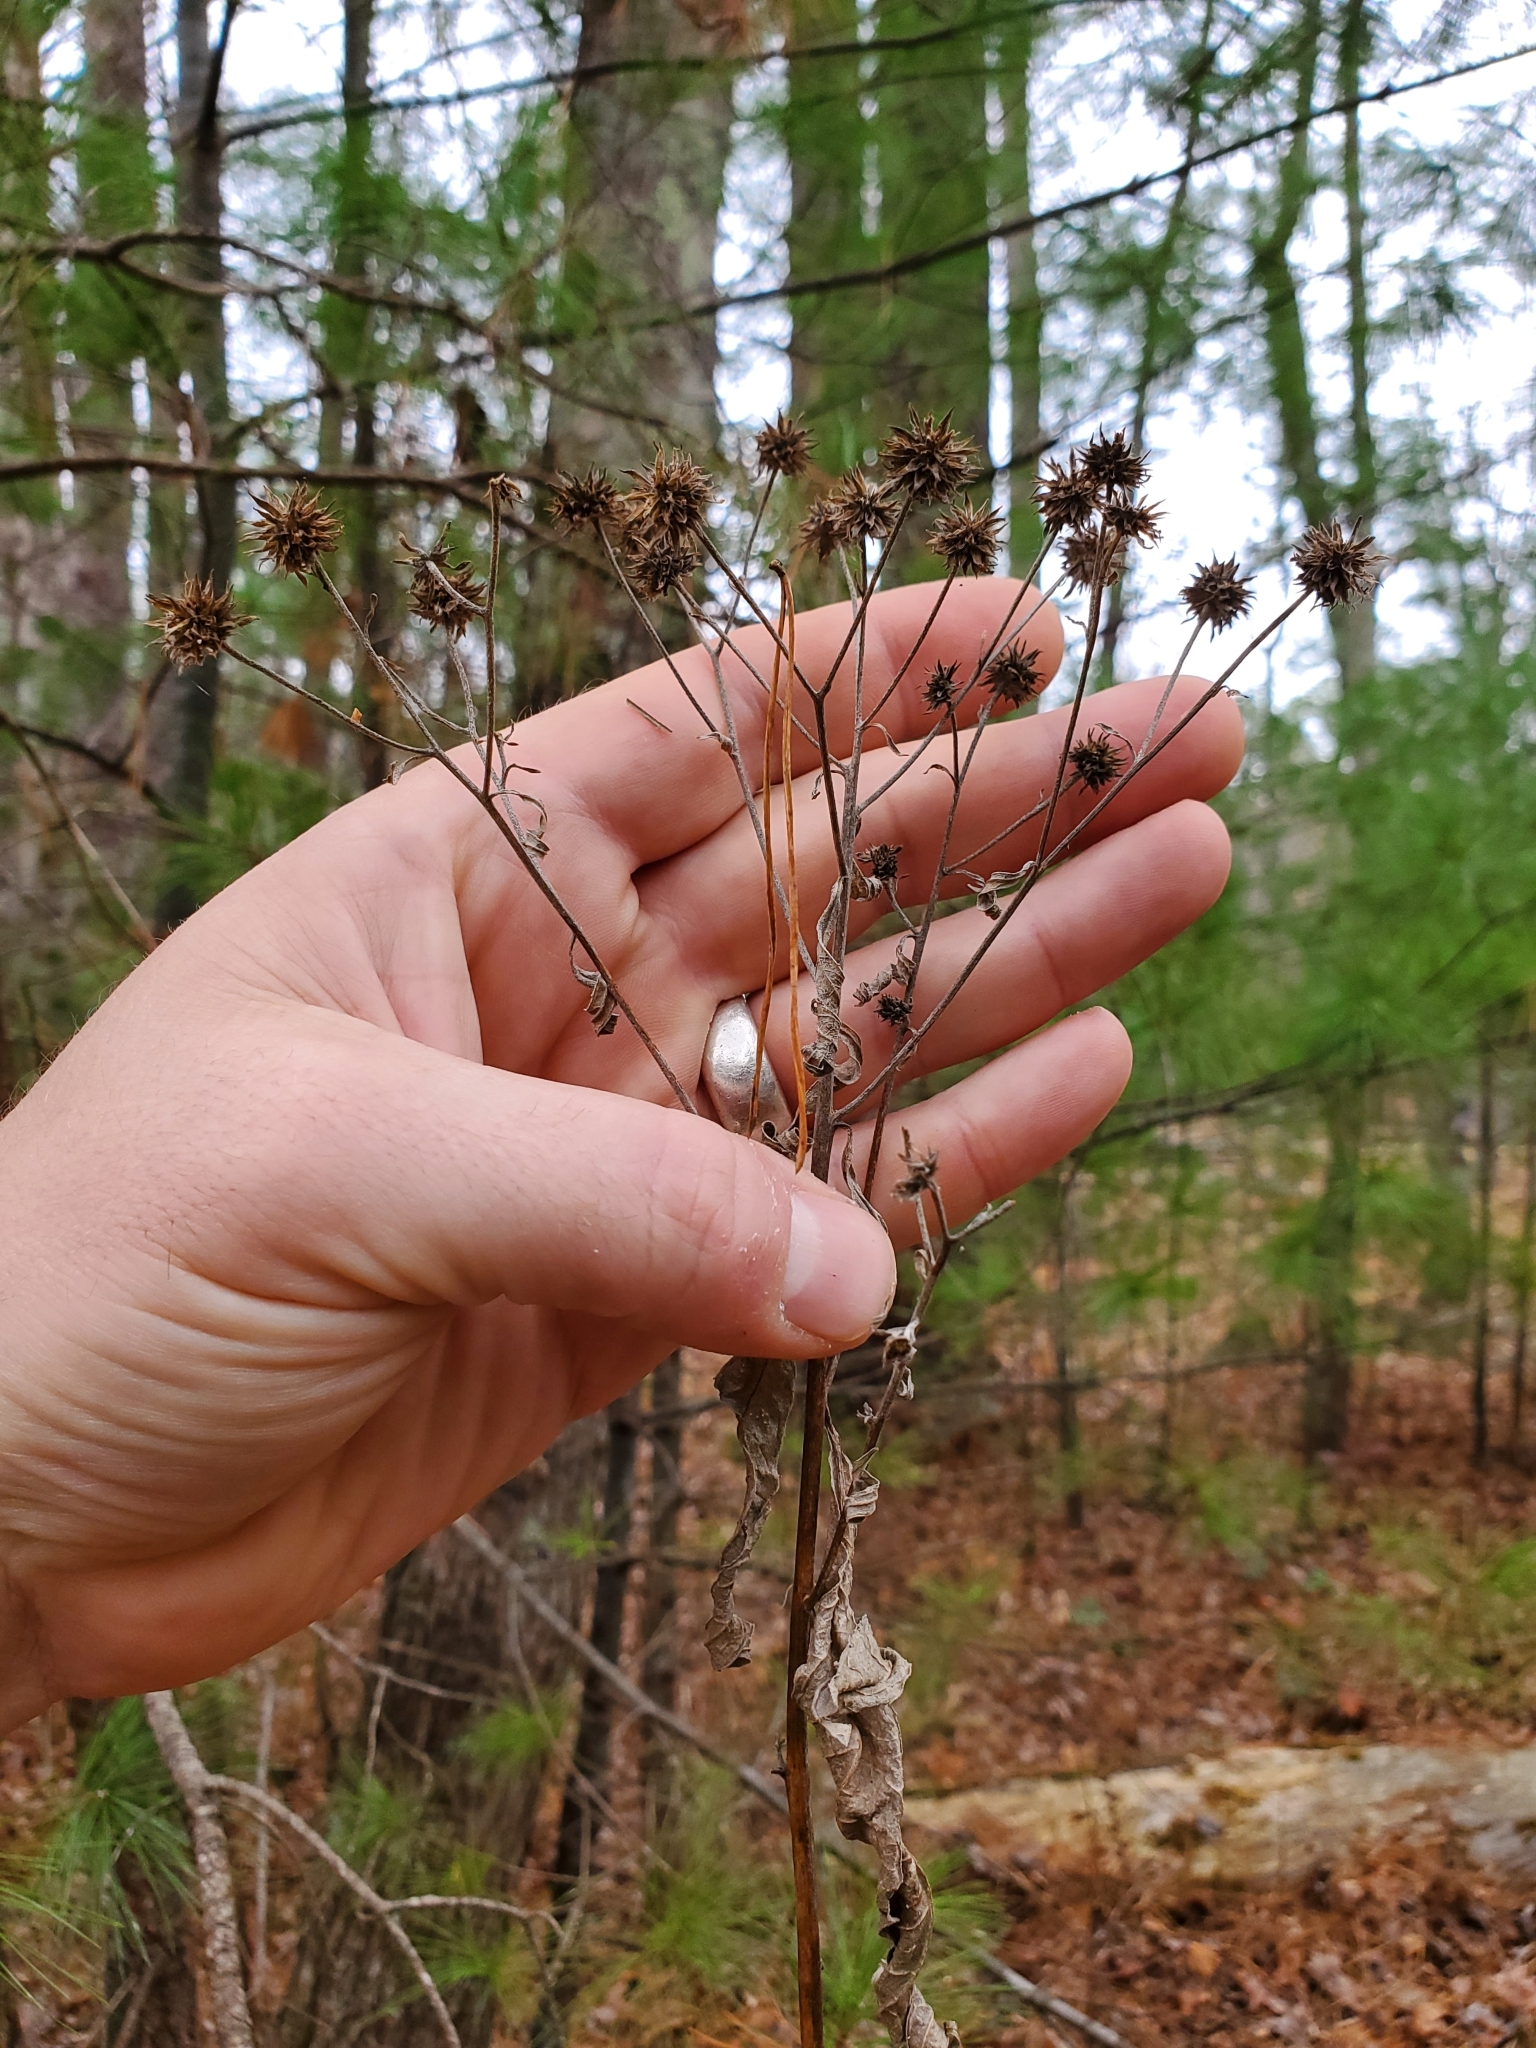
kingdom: Plantae
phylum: Tracheophyta
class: Magnoliopsida
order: Asterales
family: Asteraceae
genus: Verbesina
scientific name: Verbesina alternifolia
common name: Wingstem
